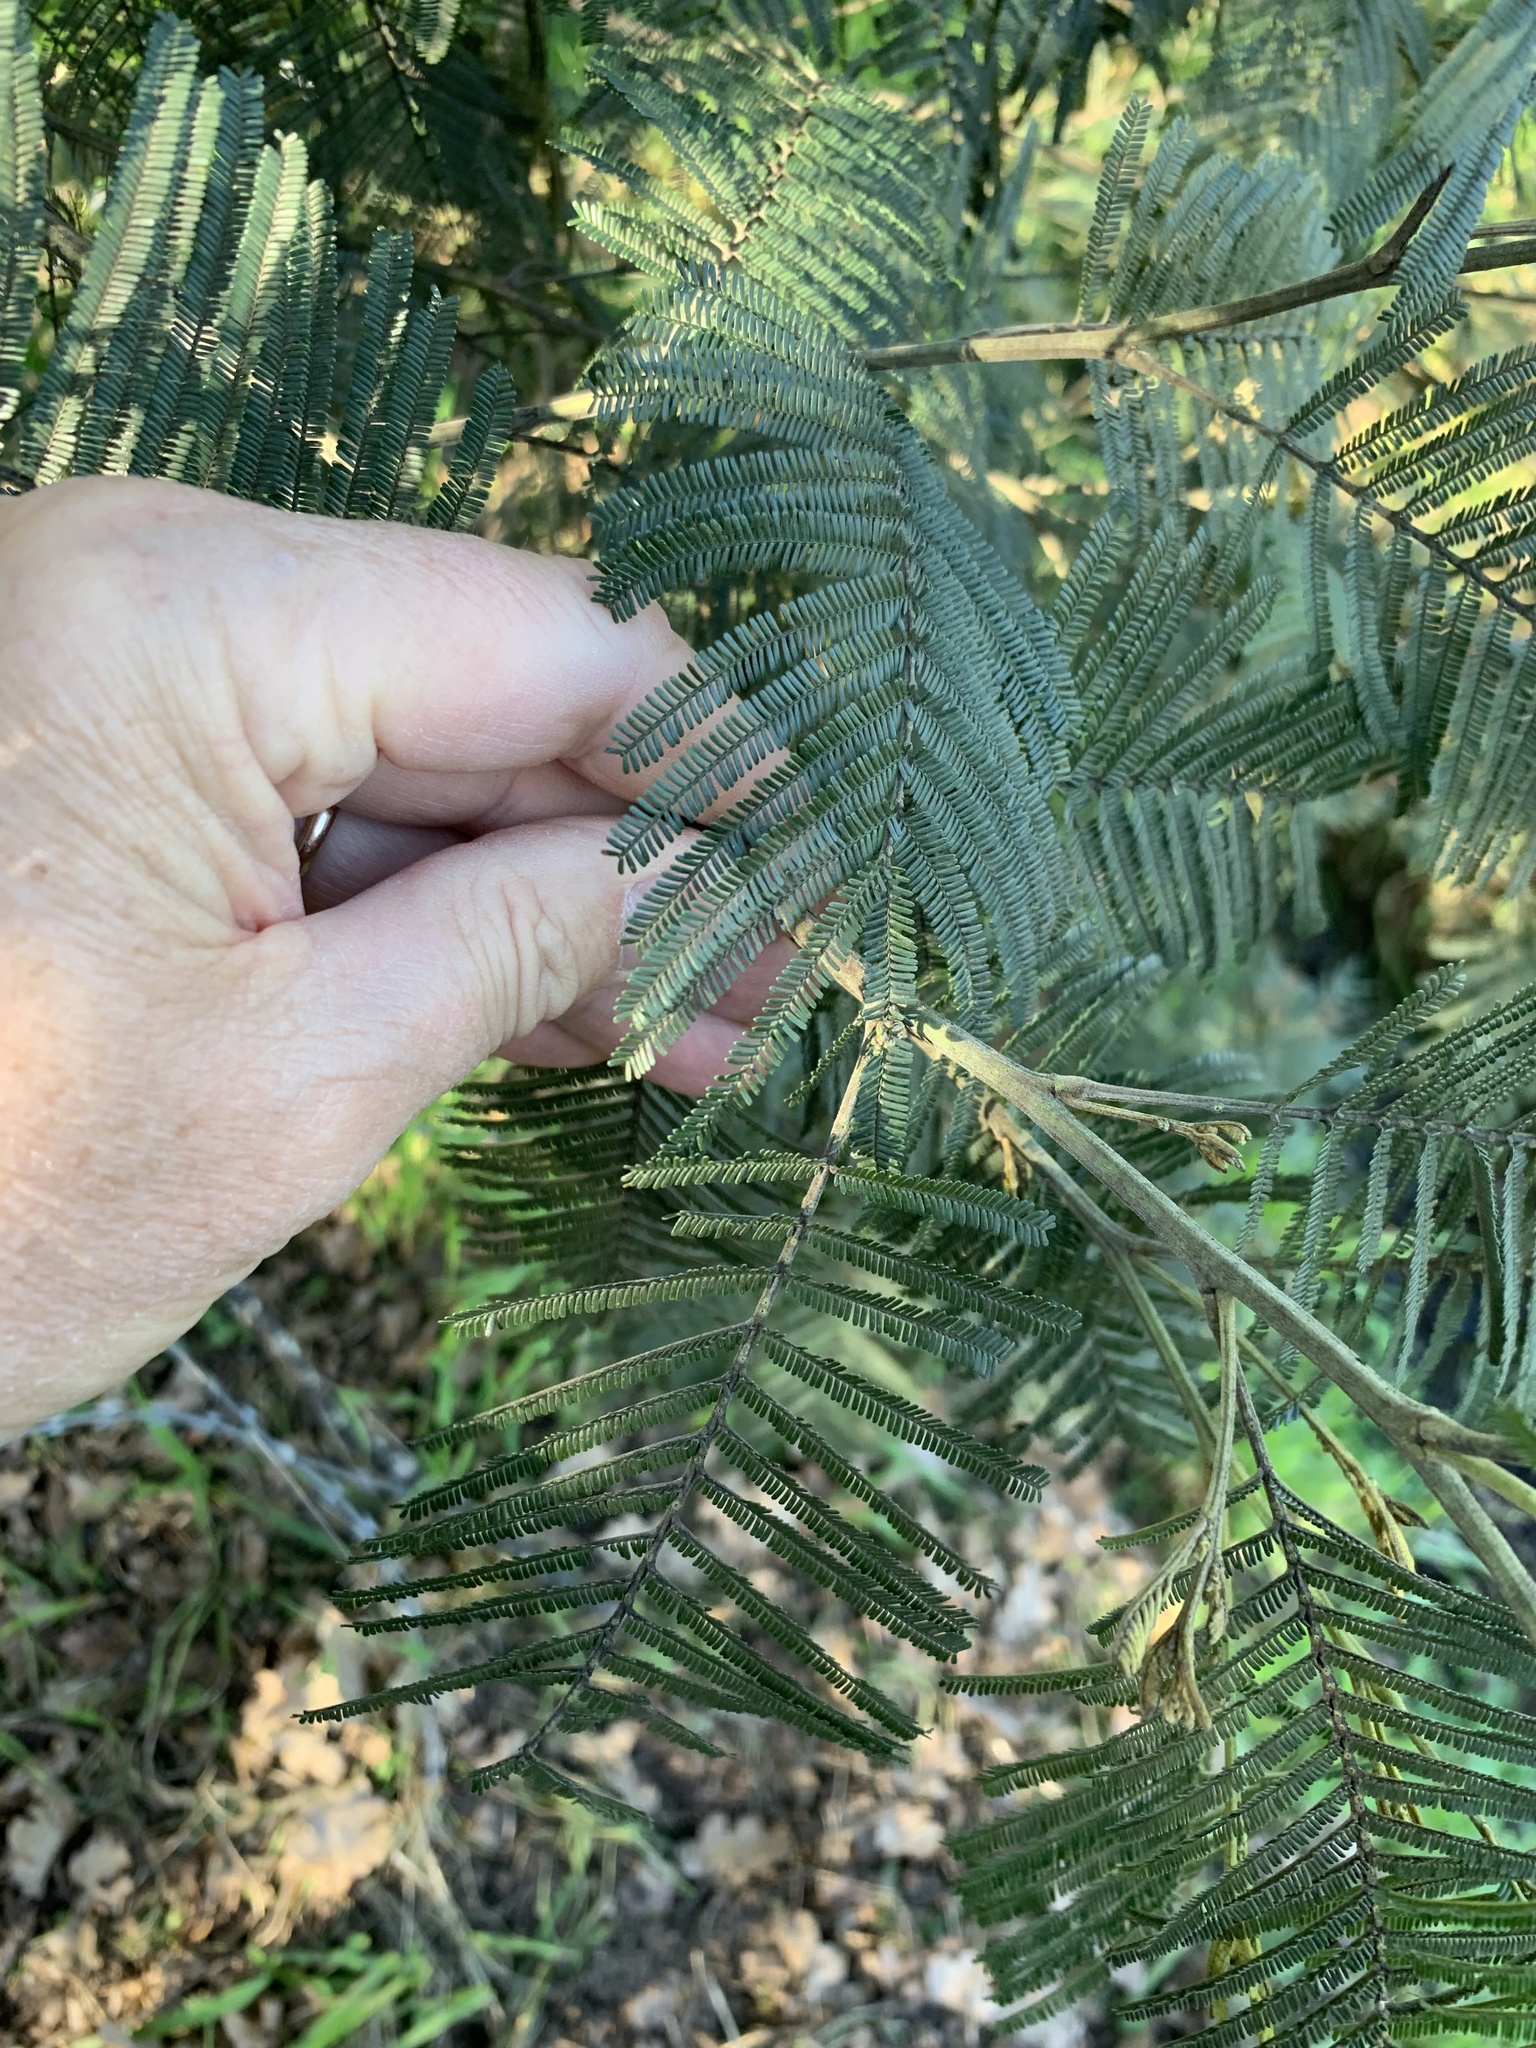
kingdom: Plantae
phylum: Tracheophyta
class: Magnoliopsida
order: Fabales
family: Fabaceae
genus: Acacia
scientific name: Acacia mearnsii
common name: Black wattle
